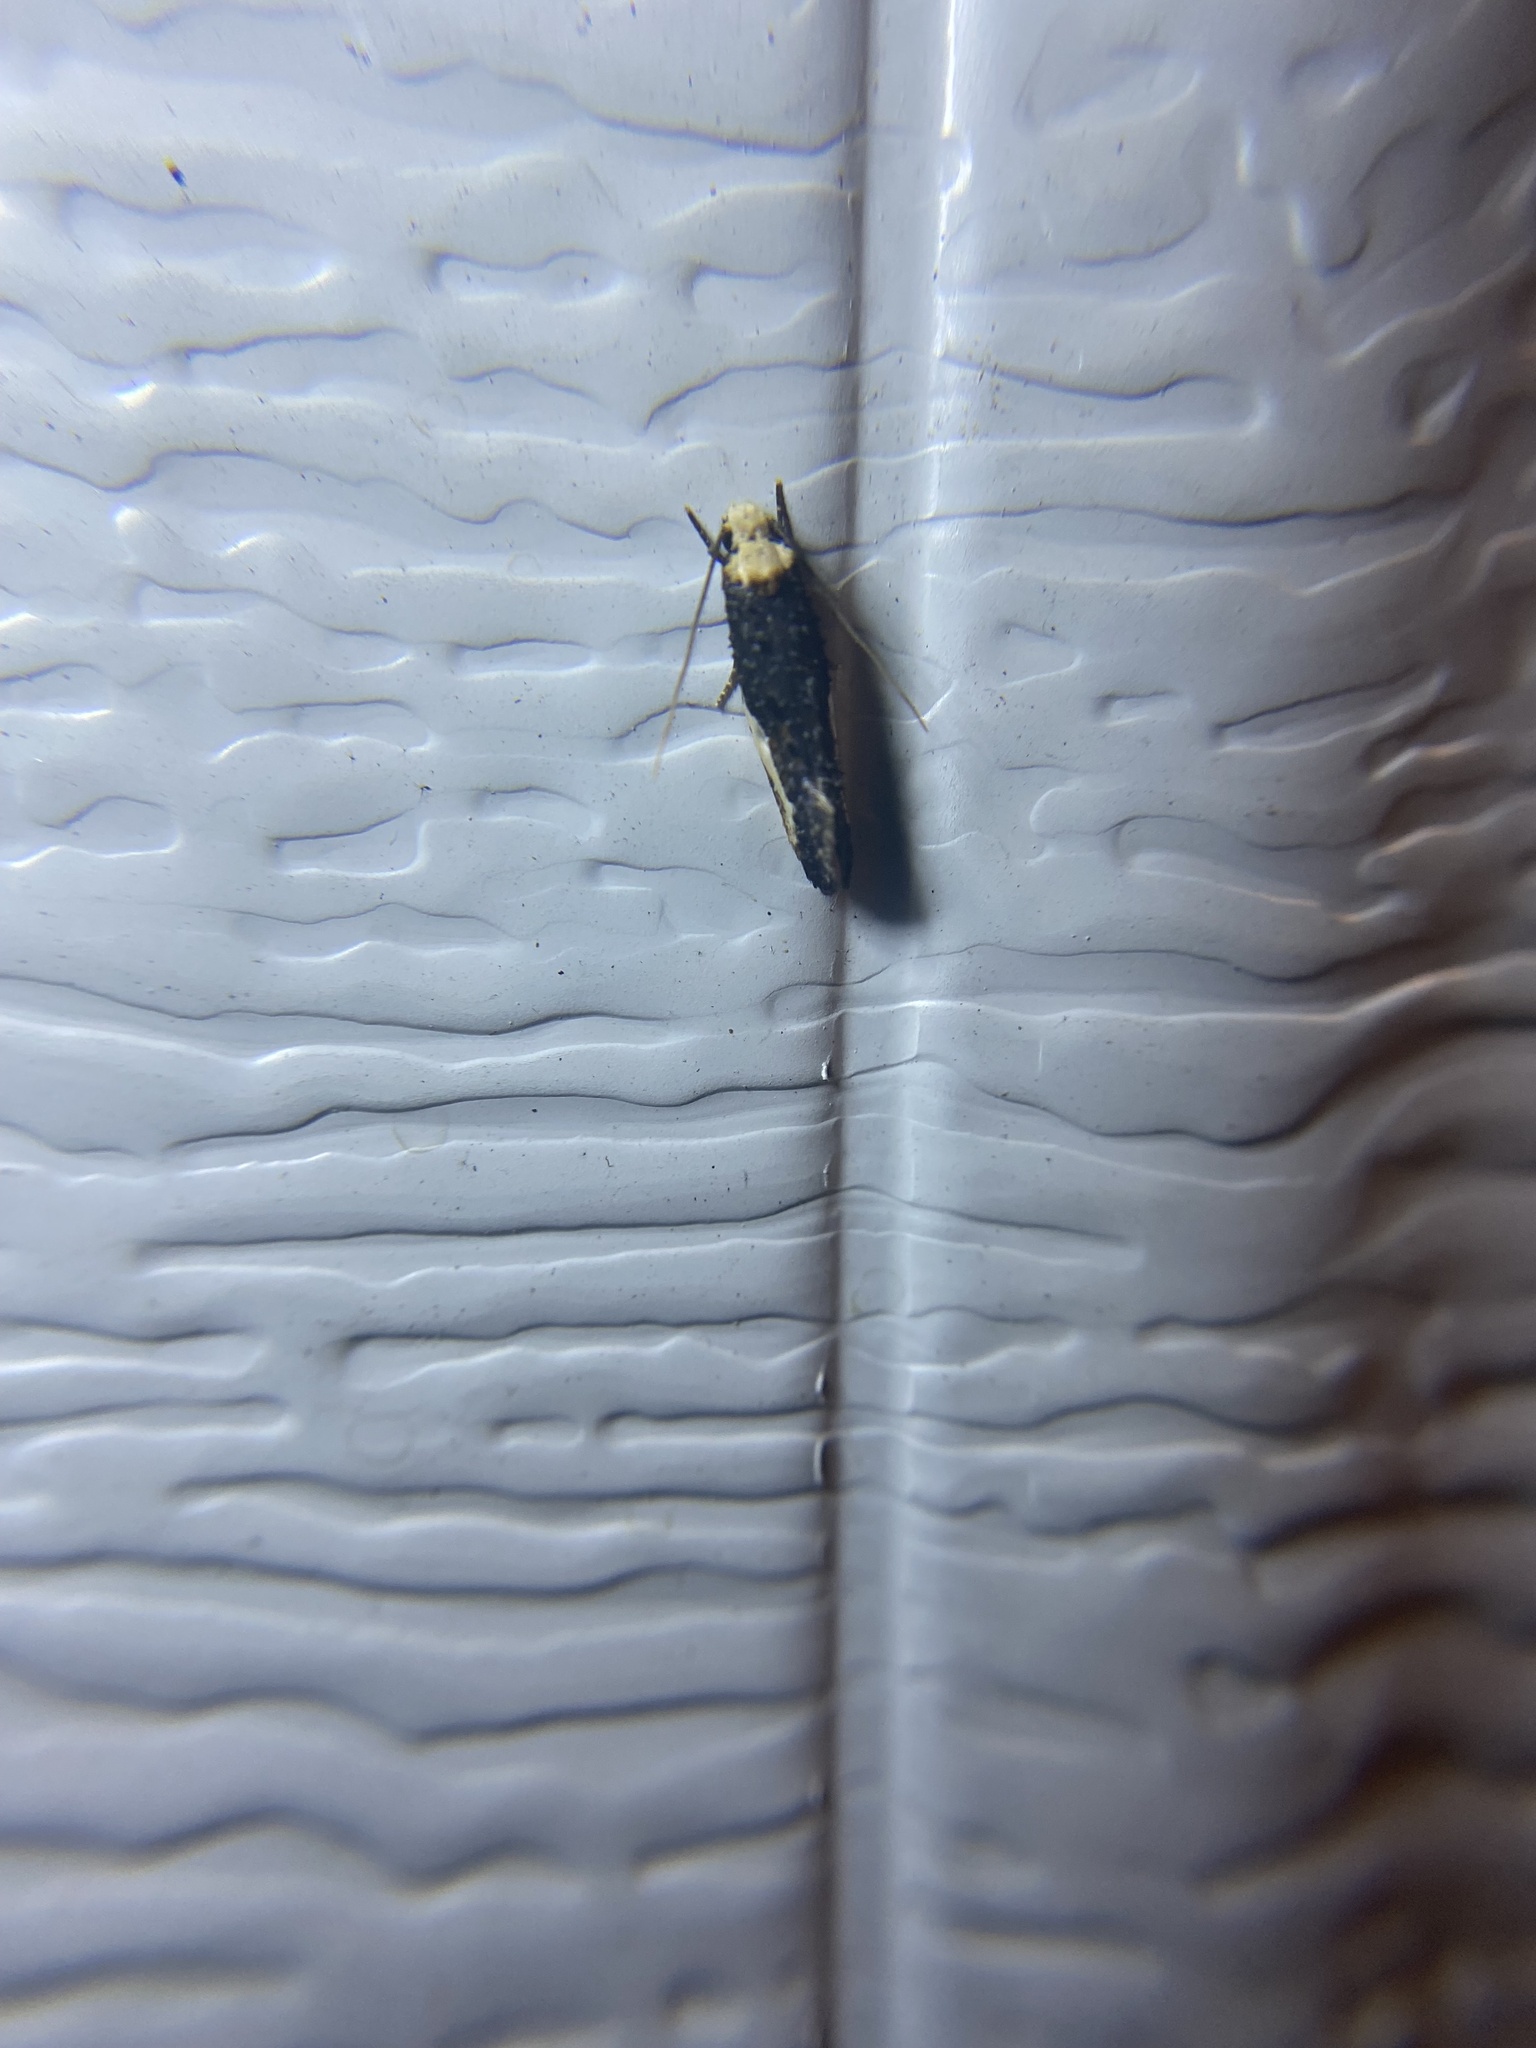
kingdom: Animalia
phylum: Arthropoda
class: Insecta
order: Lepidoptera
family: Tineidae
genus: Monopis
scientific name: Monopis longella
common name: Pavlovski's monopis moth
